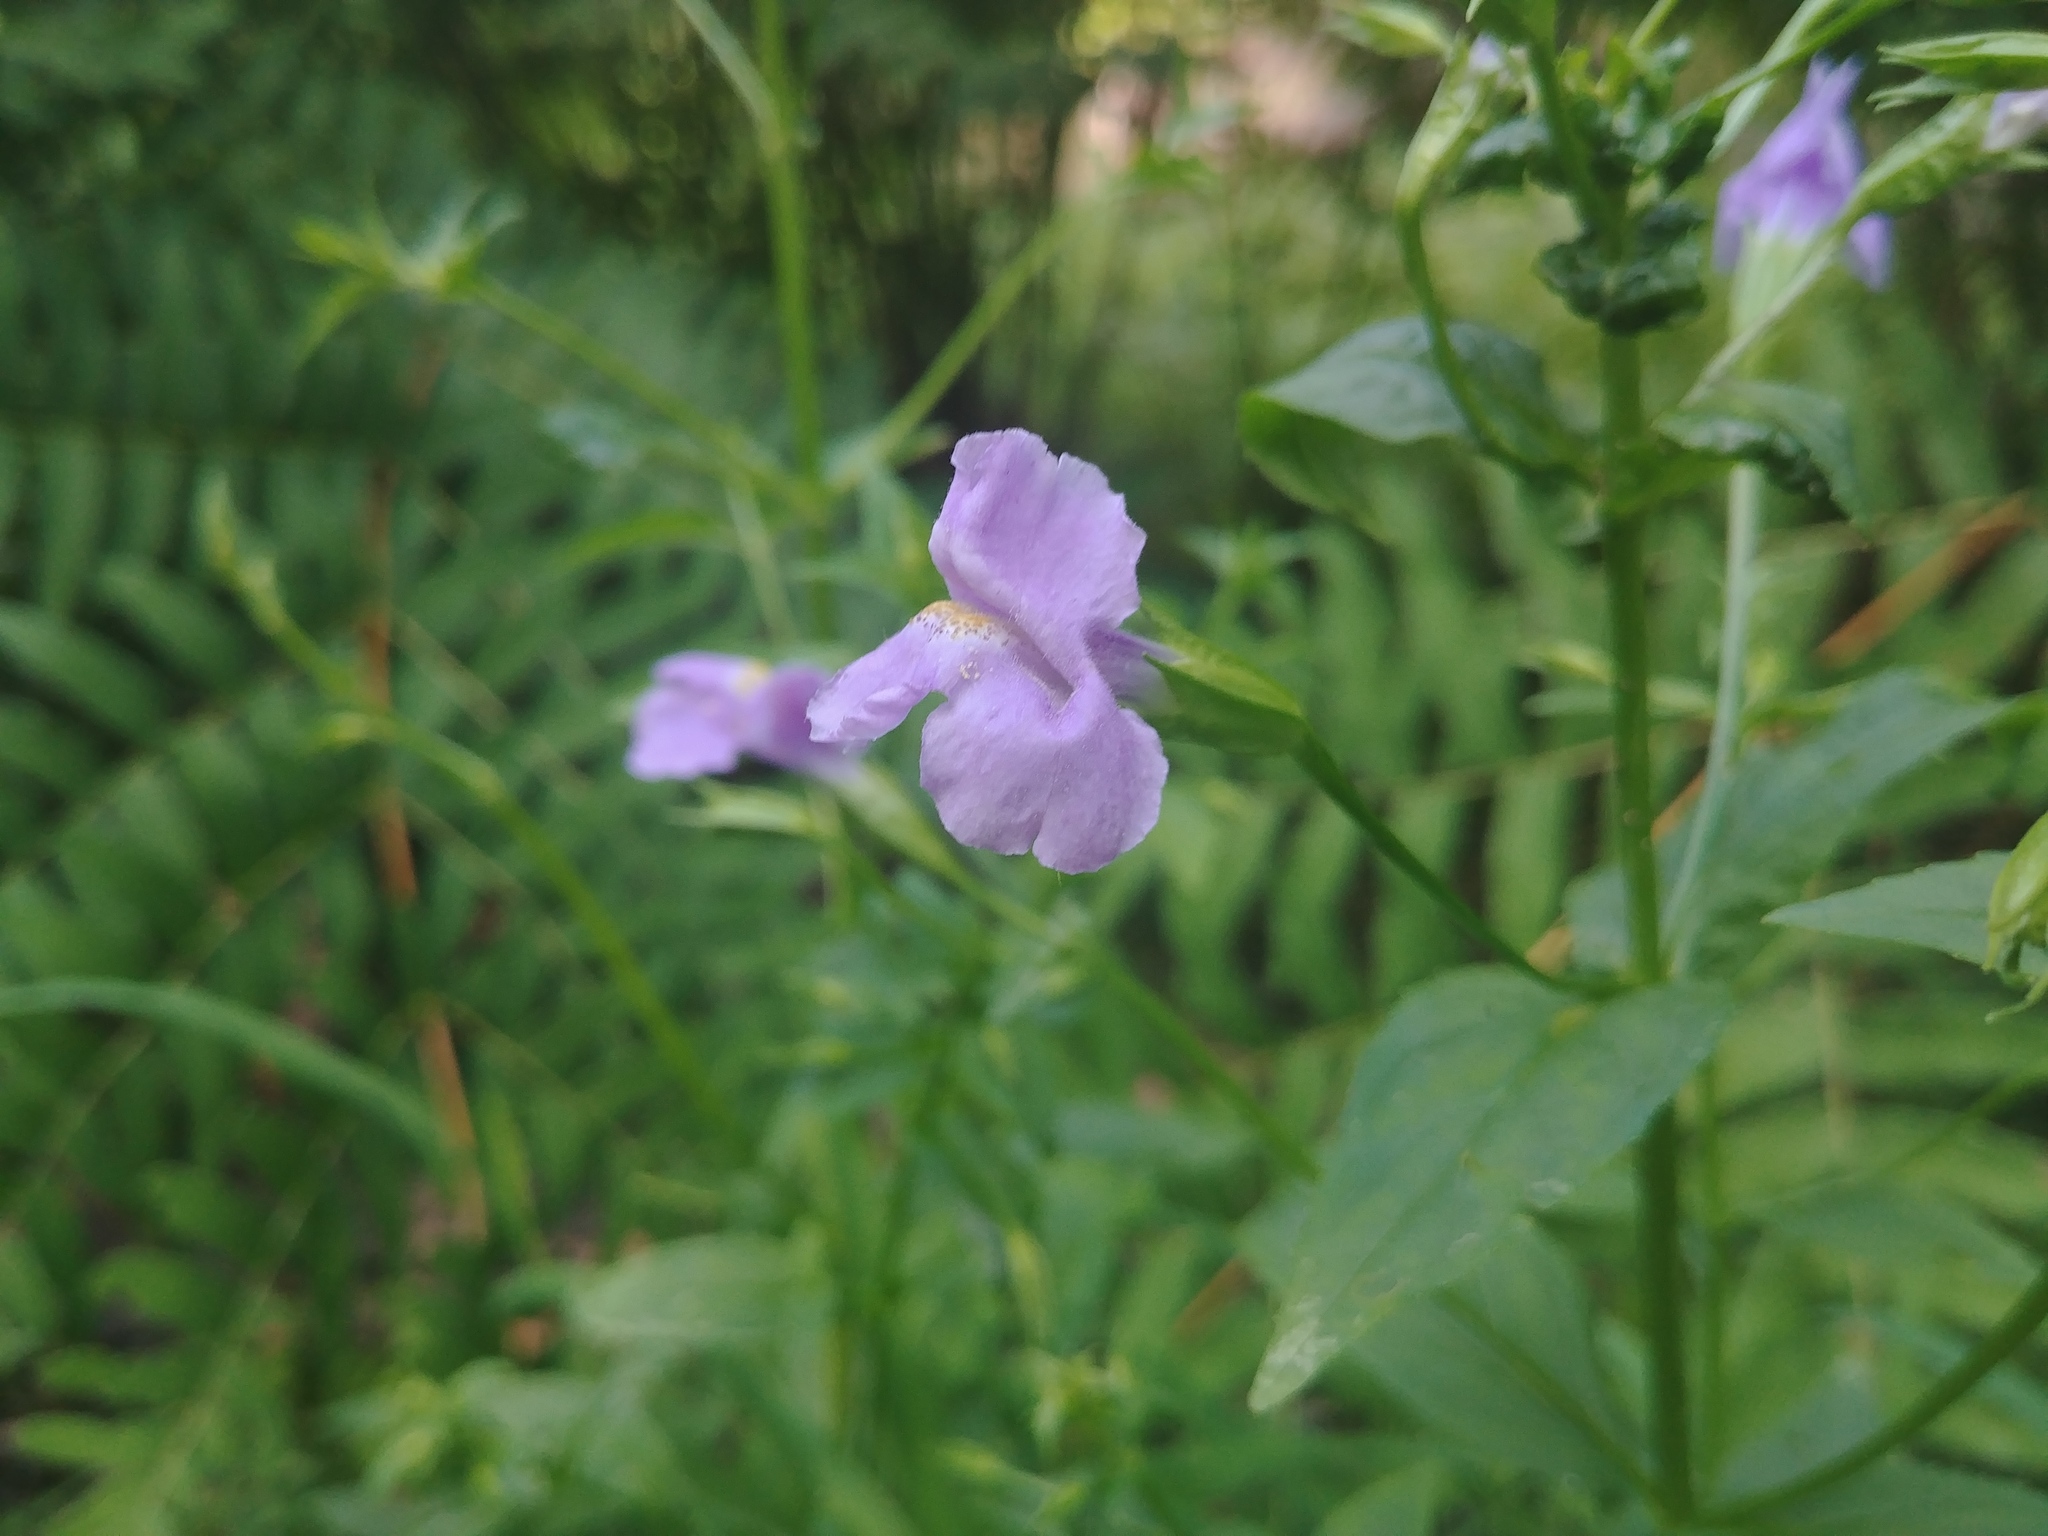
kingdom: Plantae
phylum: Tracheophyta
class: Magnoliopsida
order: Lamiales
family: Phrymaceae
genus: Mimulus
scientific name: Mimulus ringens
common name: Allegheny monkeyflower
